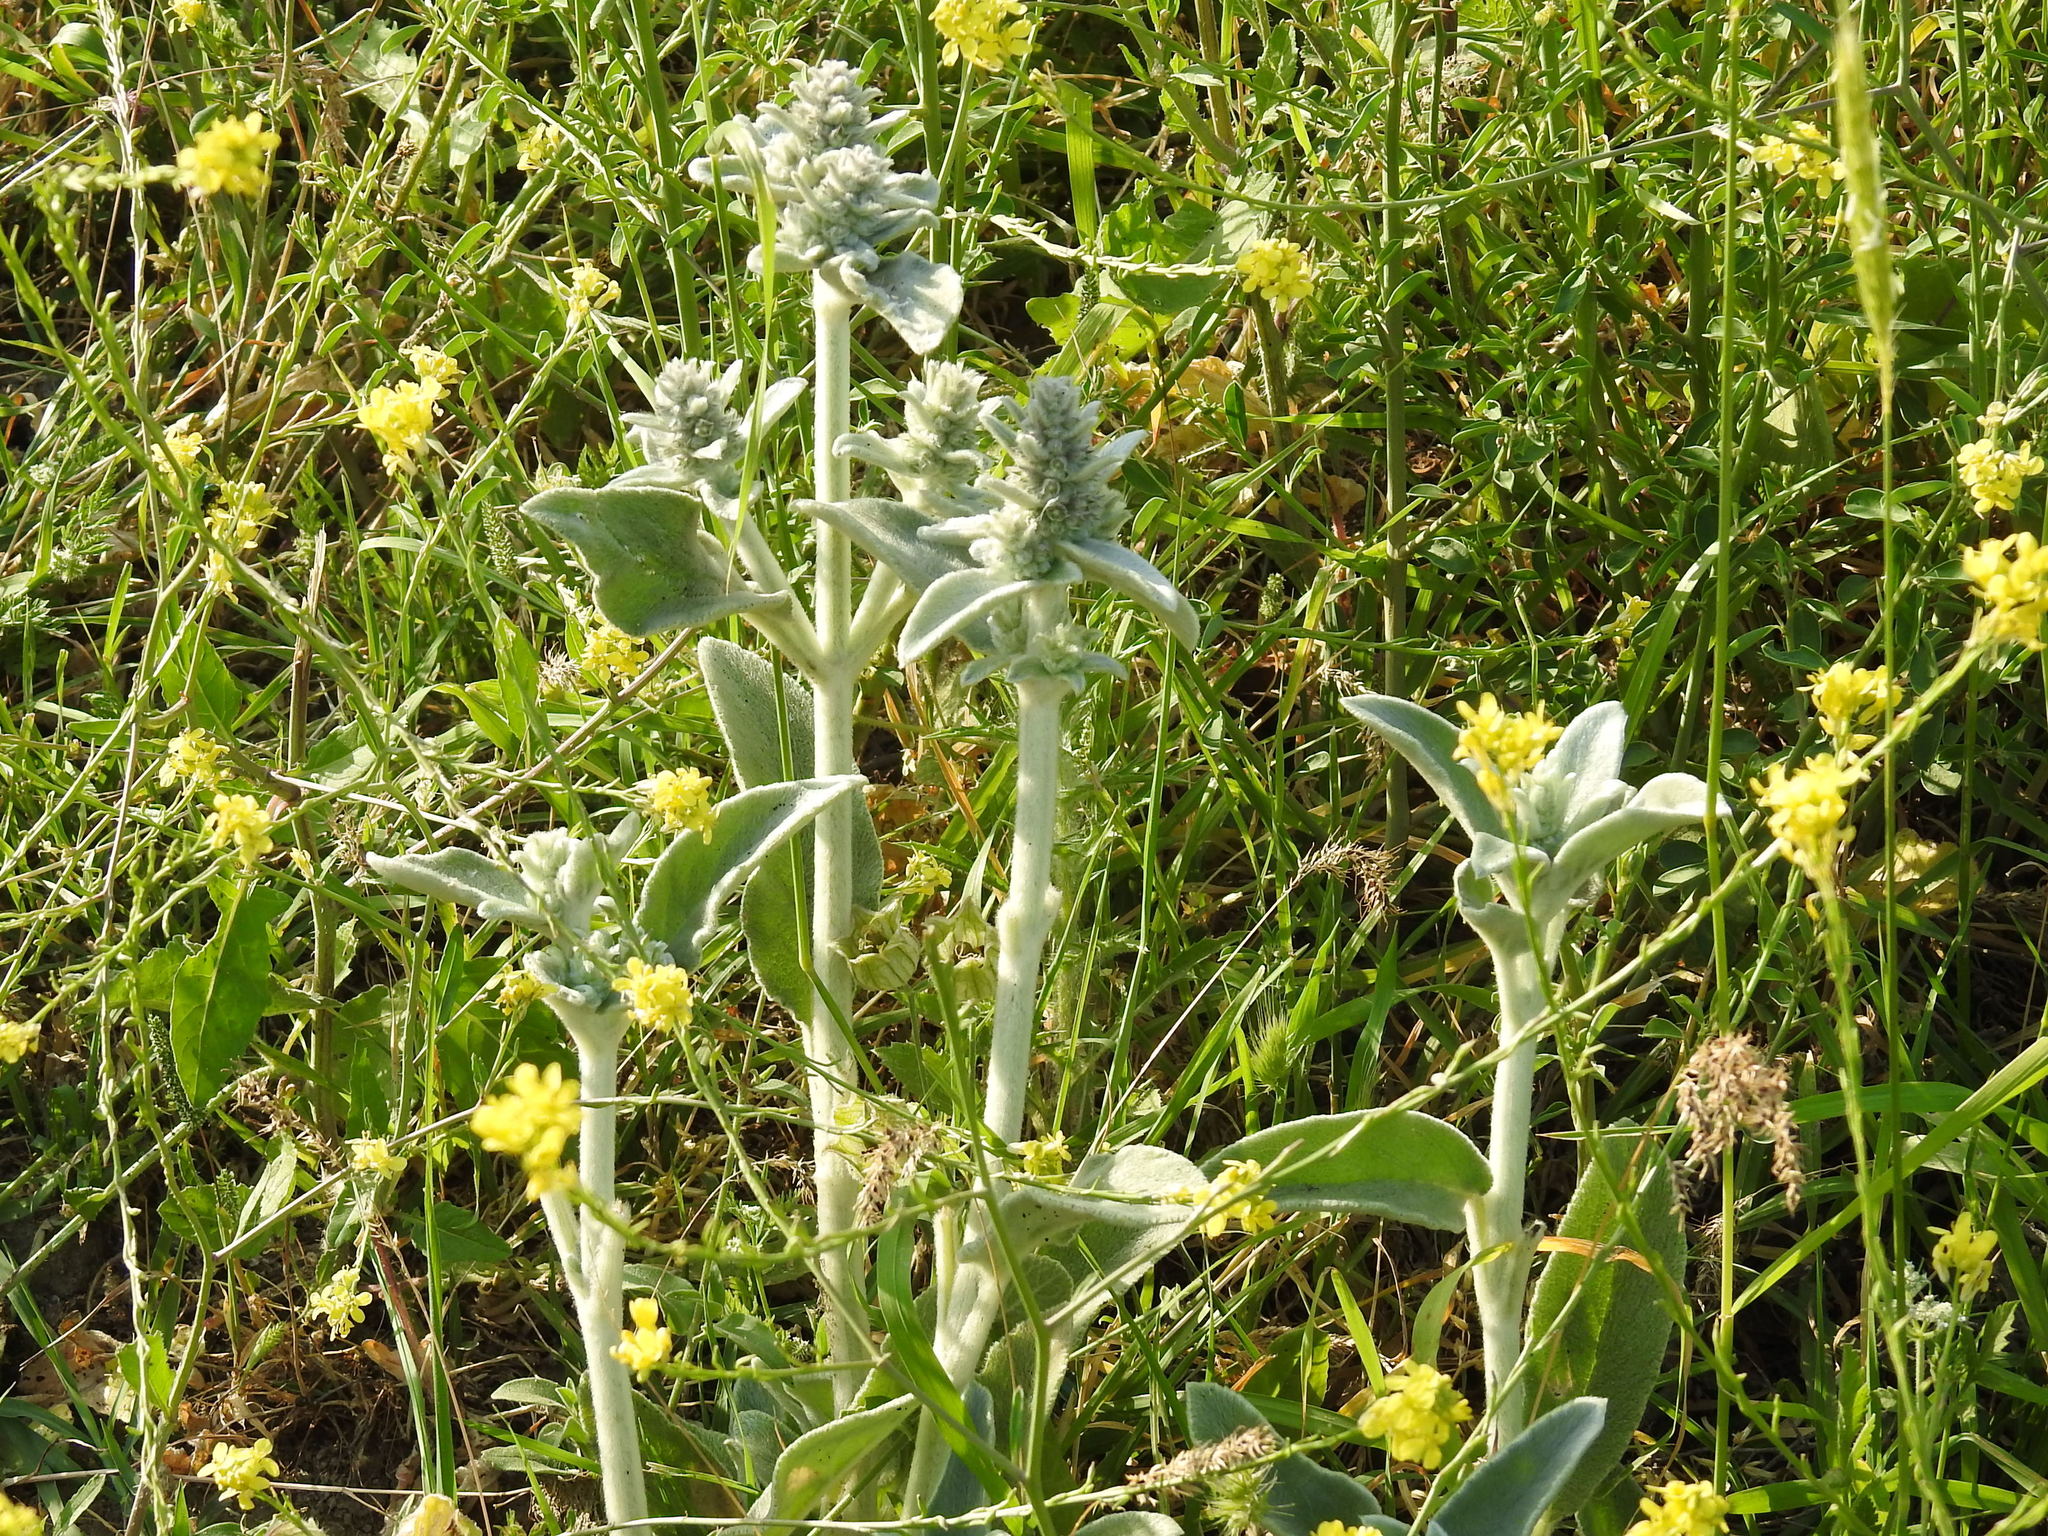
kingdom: Plantae
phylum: Tracheophyta
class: Magnoliopsida
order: Lamiales
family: Lamiaceae
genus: Stachys
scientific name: Stachys byzantina
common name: Lamb's-ear
